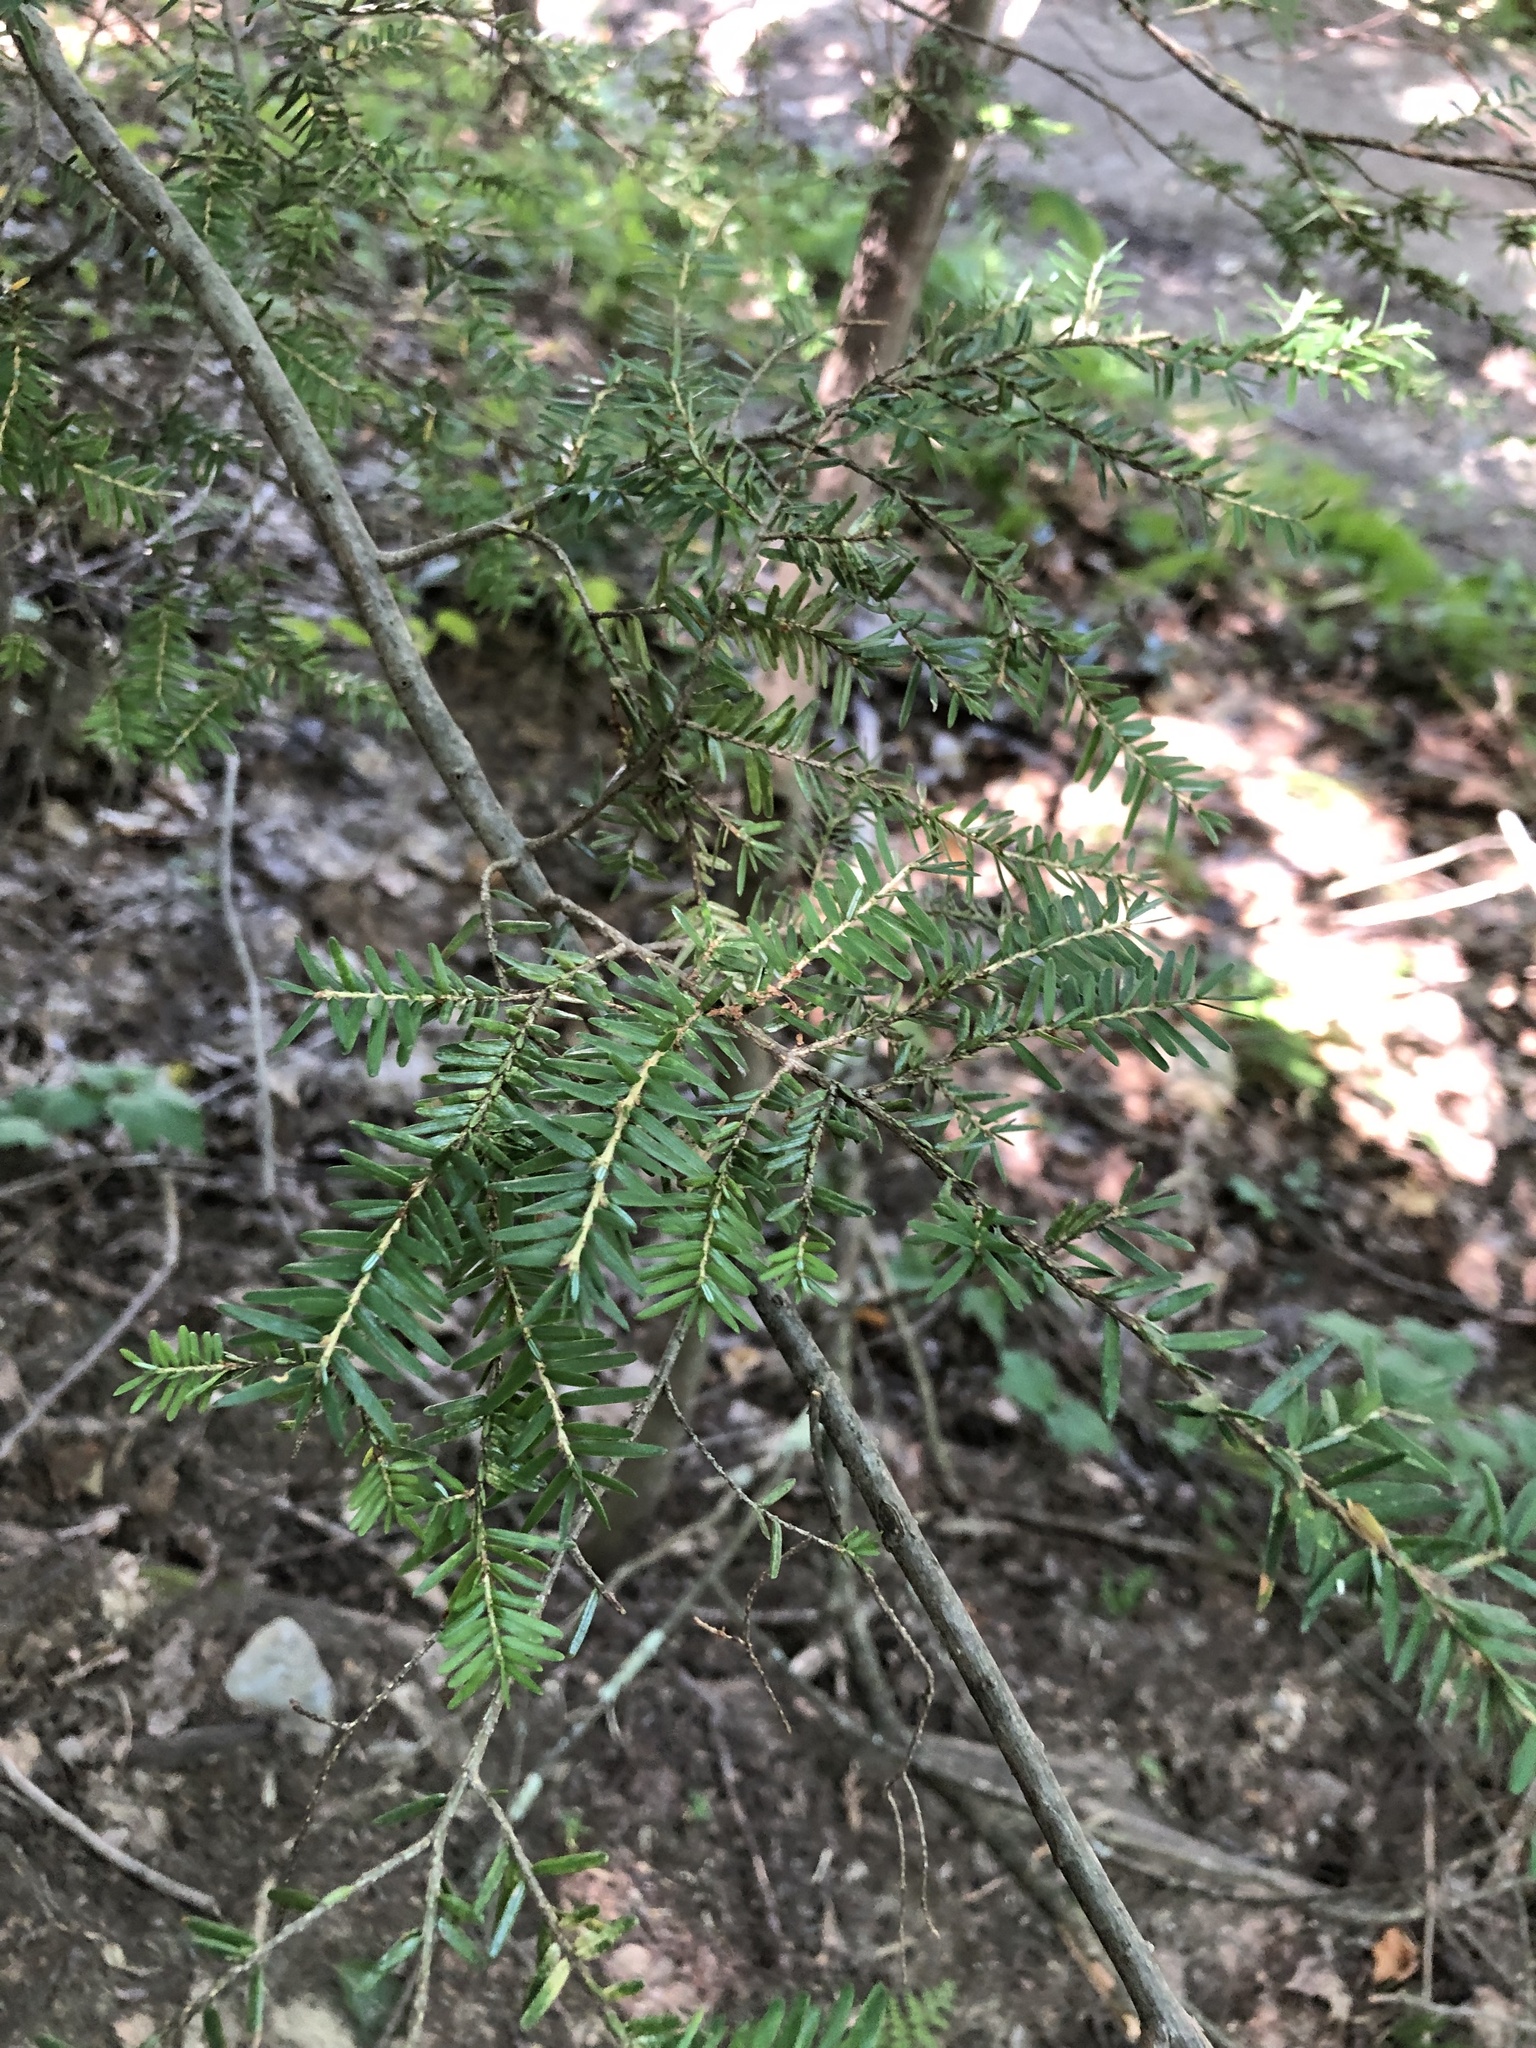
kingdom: Plantae
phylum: Tracheophyta
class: Pinopsida
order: Pinales
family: Pinaceae
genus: Tsuga
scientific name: Tsuga canadensis
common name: Eastern hemlock
